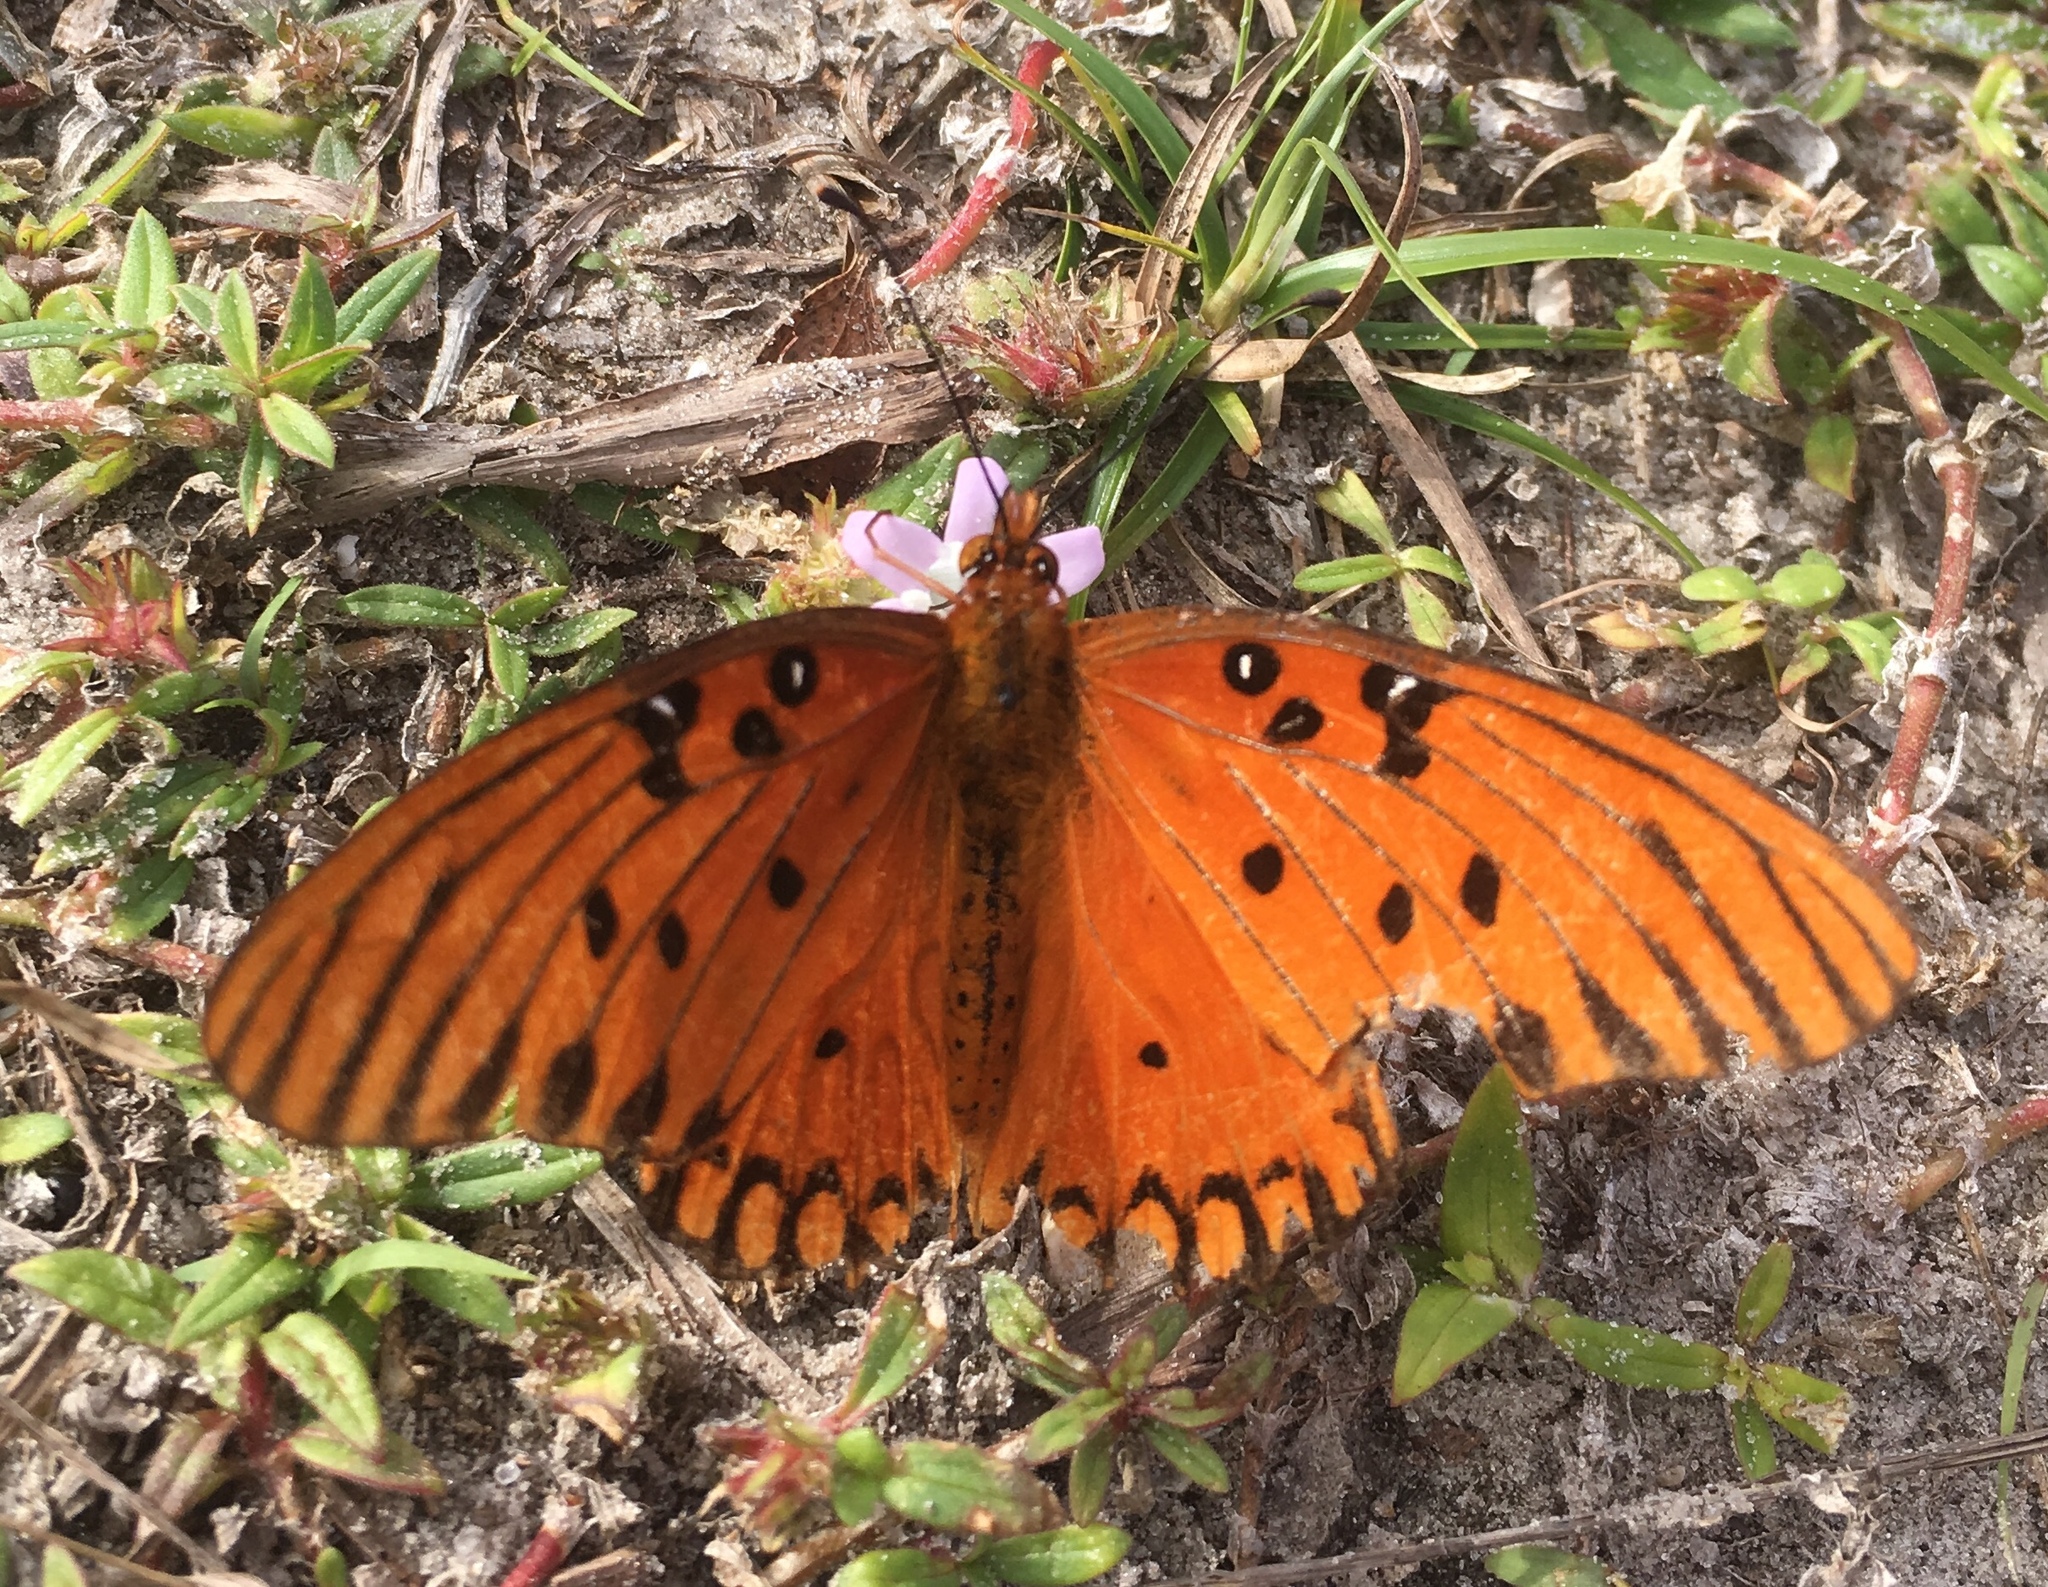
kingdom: Animalia
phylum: Arthropoda
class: Insecta
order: Lepidoptera
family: Nymphalidae
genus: Dione
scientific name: Dione vanillae
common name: Gulf fritillary
